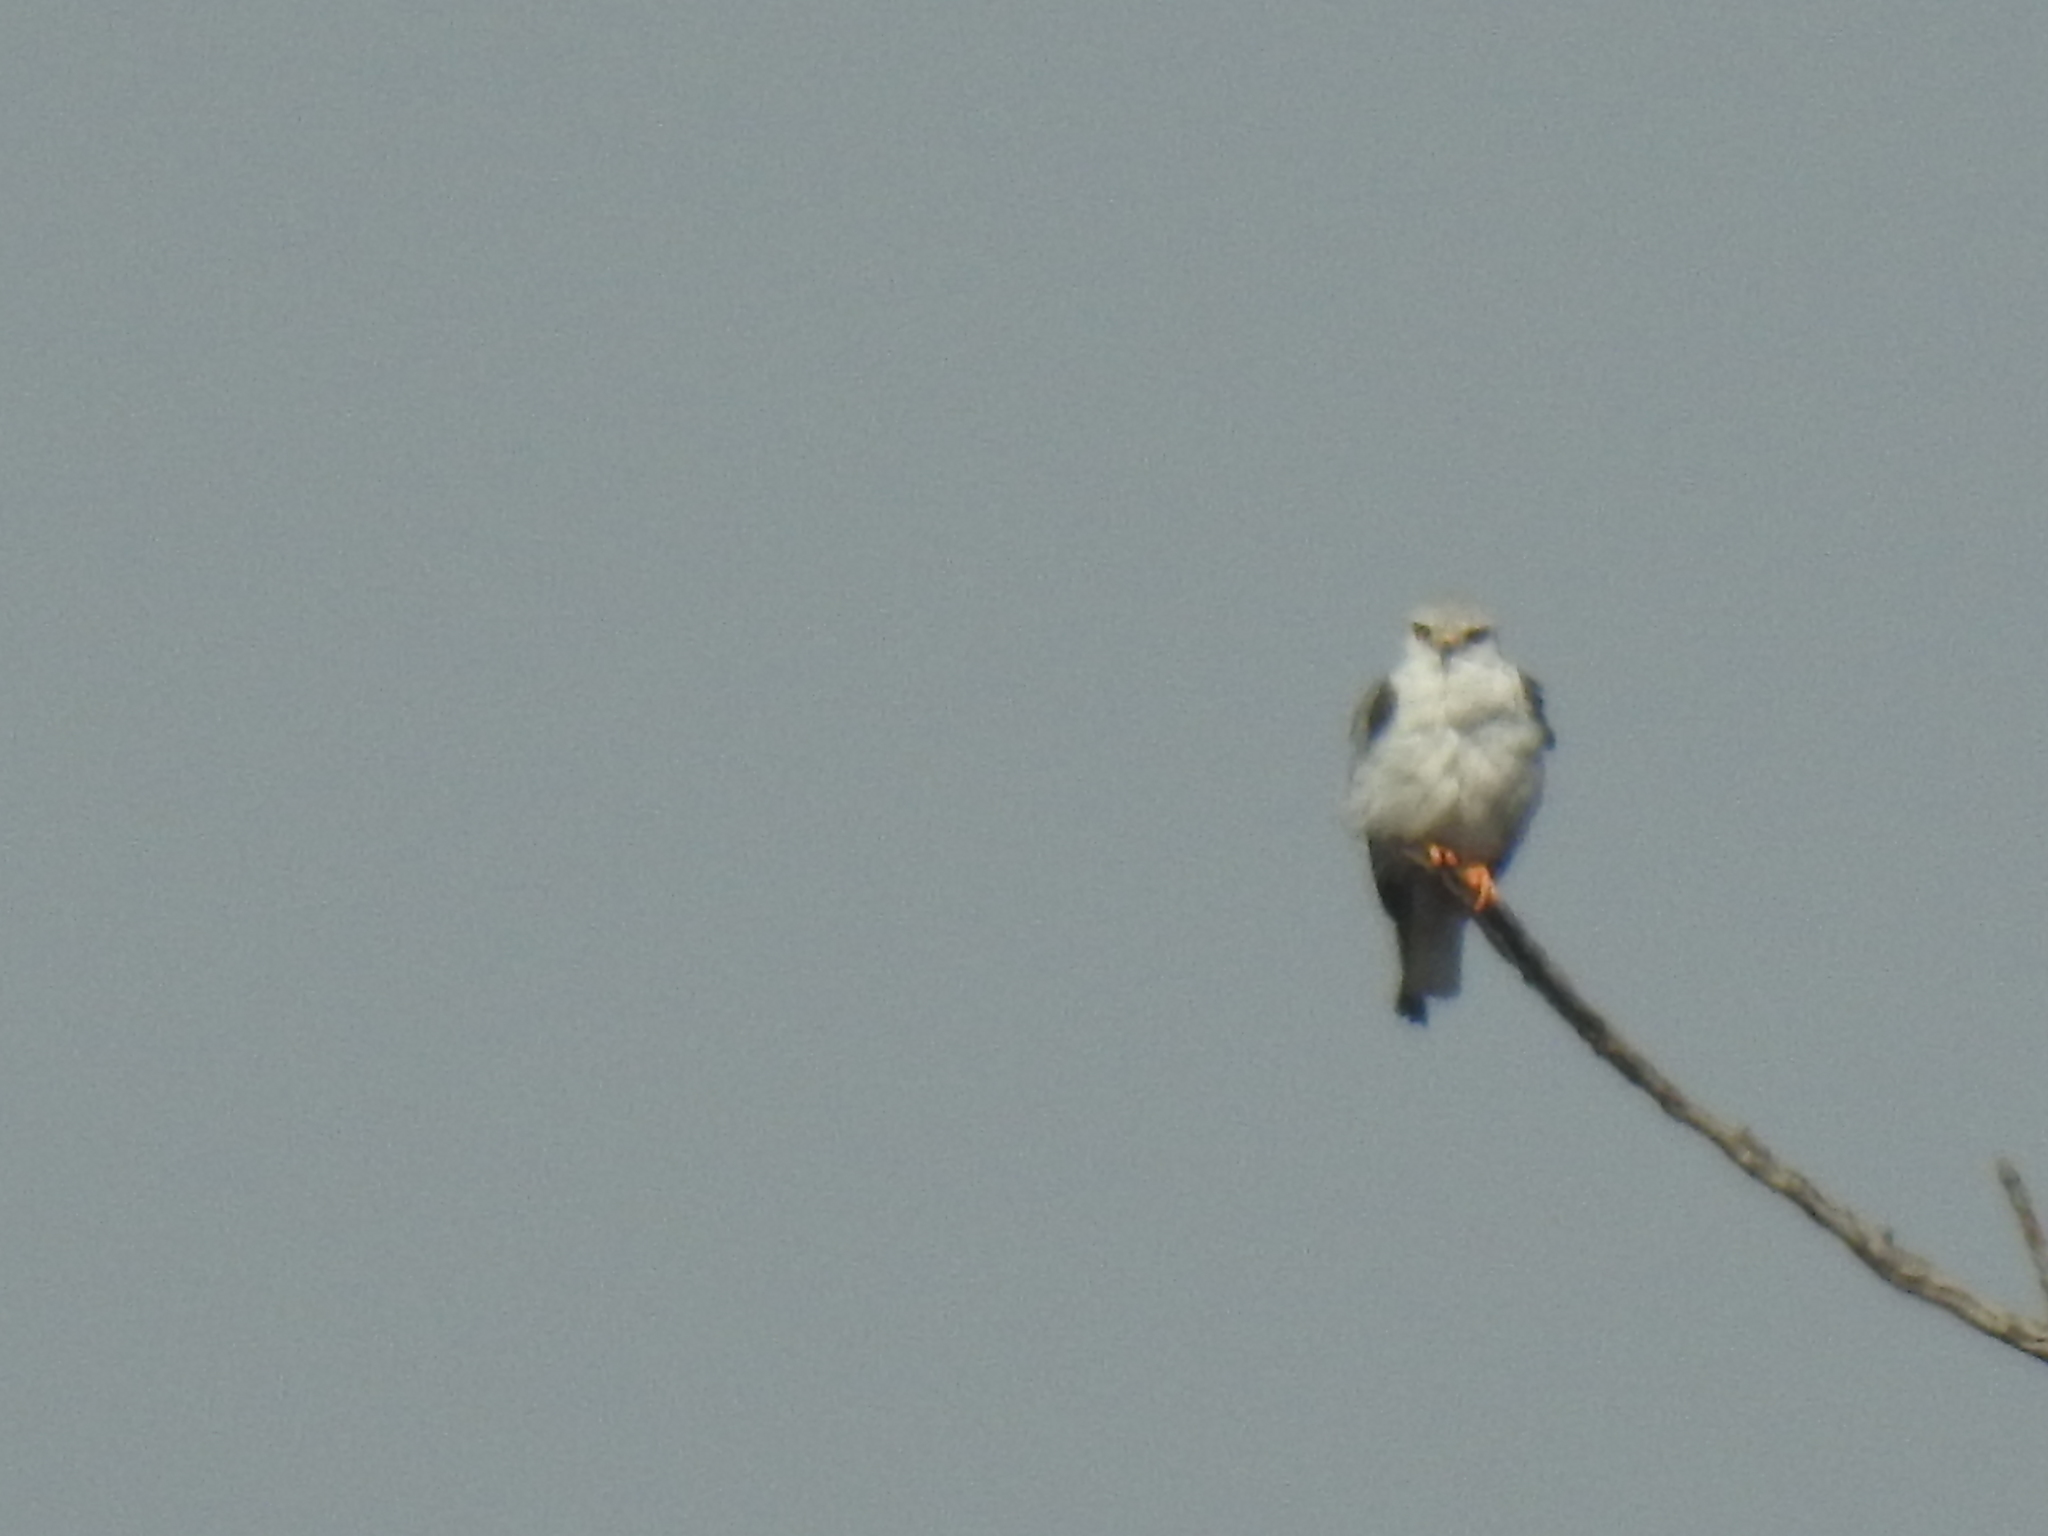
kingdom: Animalia
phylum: Chordata
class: Aves
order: Accipitriformes
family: Accipitridae
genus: Elanus
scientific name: Elanus caeruleus
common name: Black-winged kite
